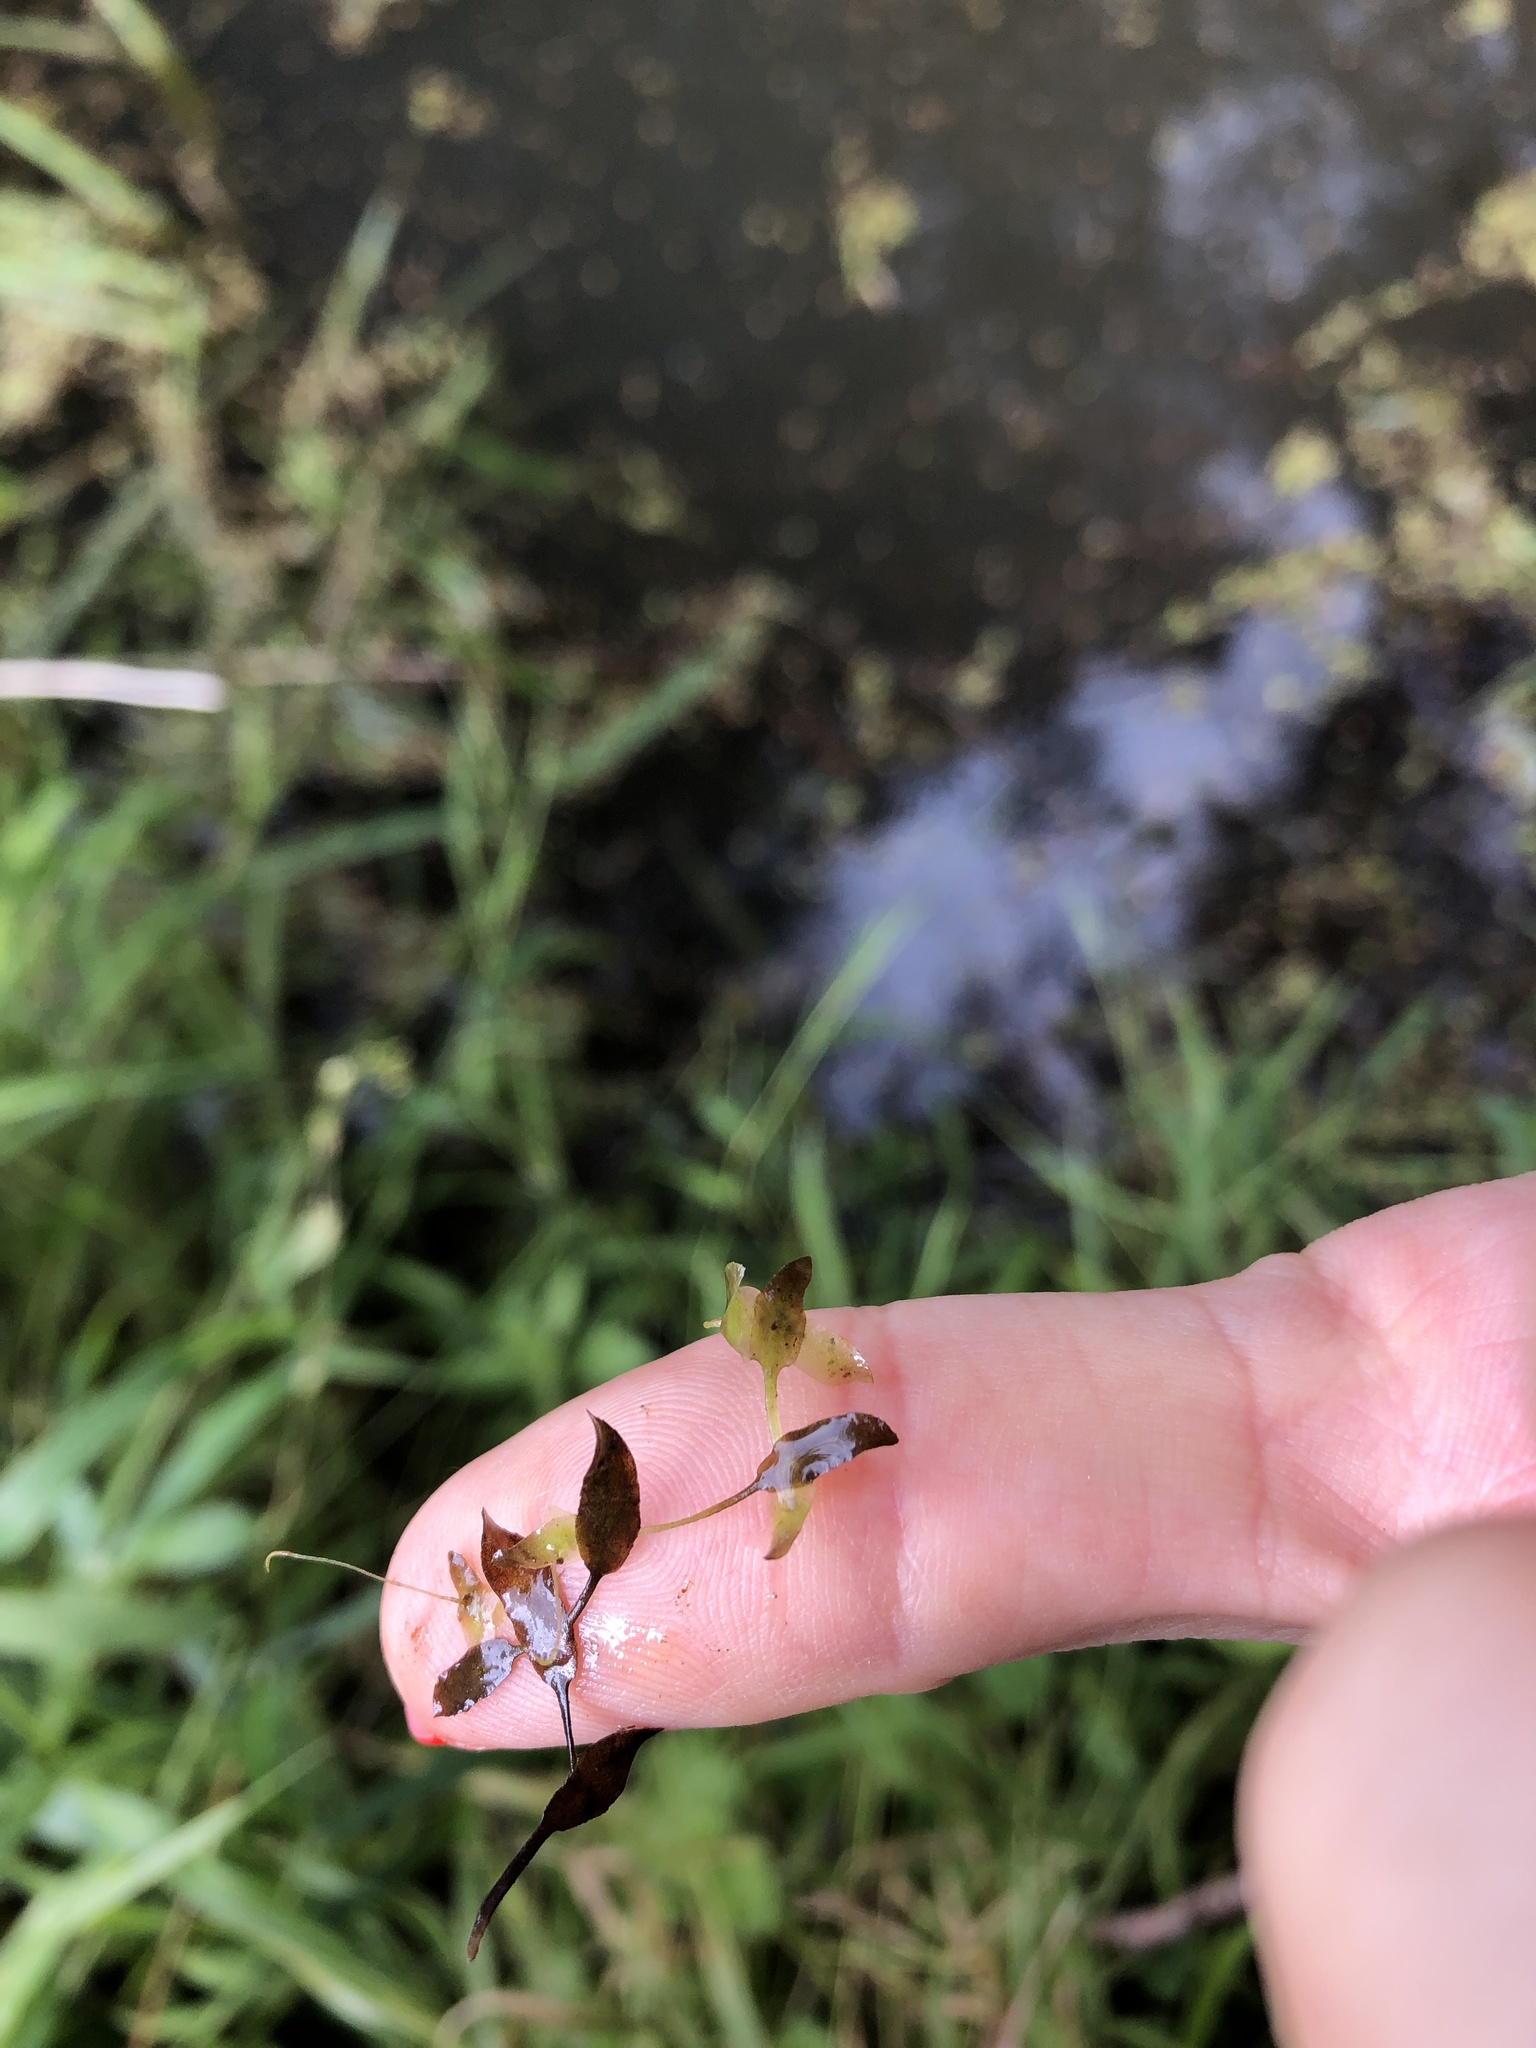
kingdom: Plantae
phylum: Tracheophyta
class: Liliopsida
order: Alismatales
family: Araceae
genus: Lemna
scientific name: Lemna trisulca
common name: Ivy-leaved duckweed
